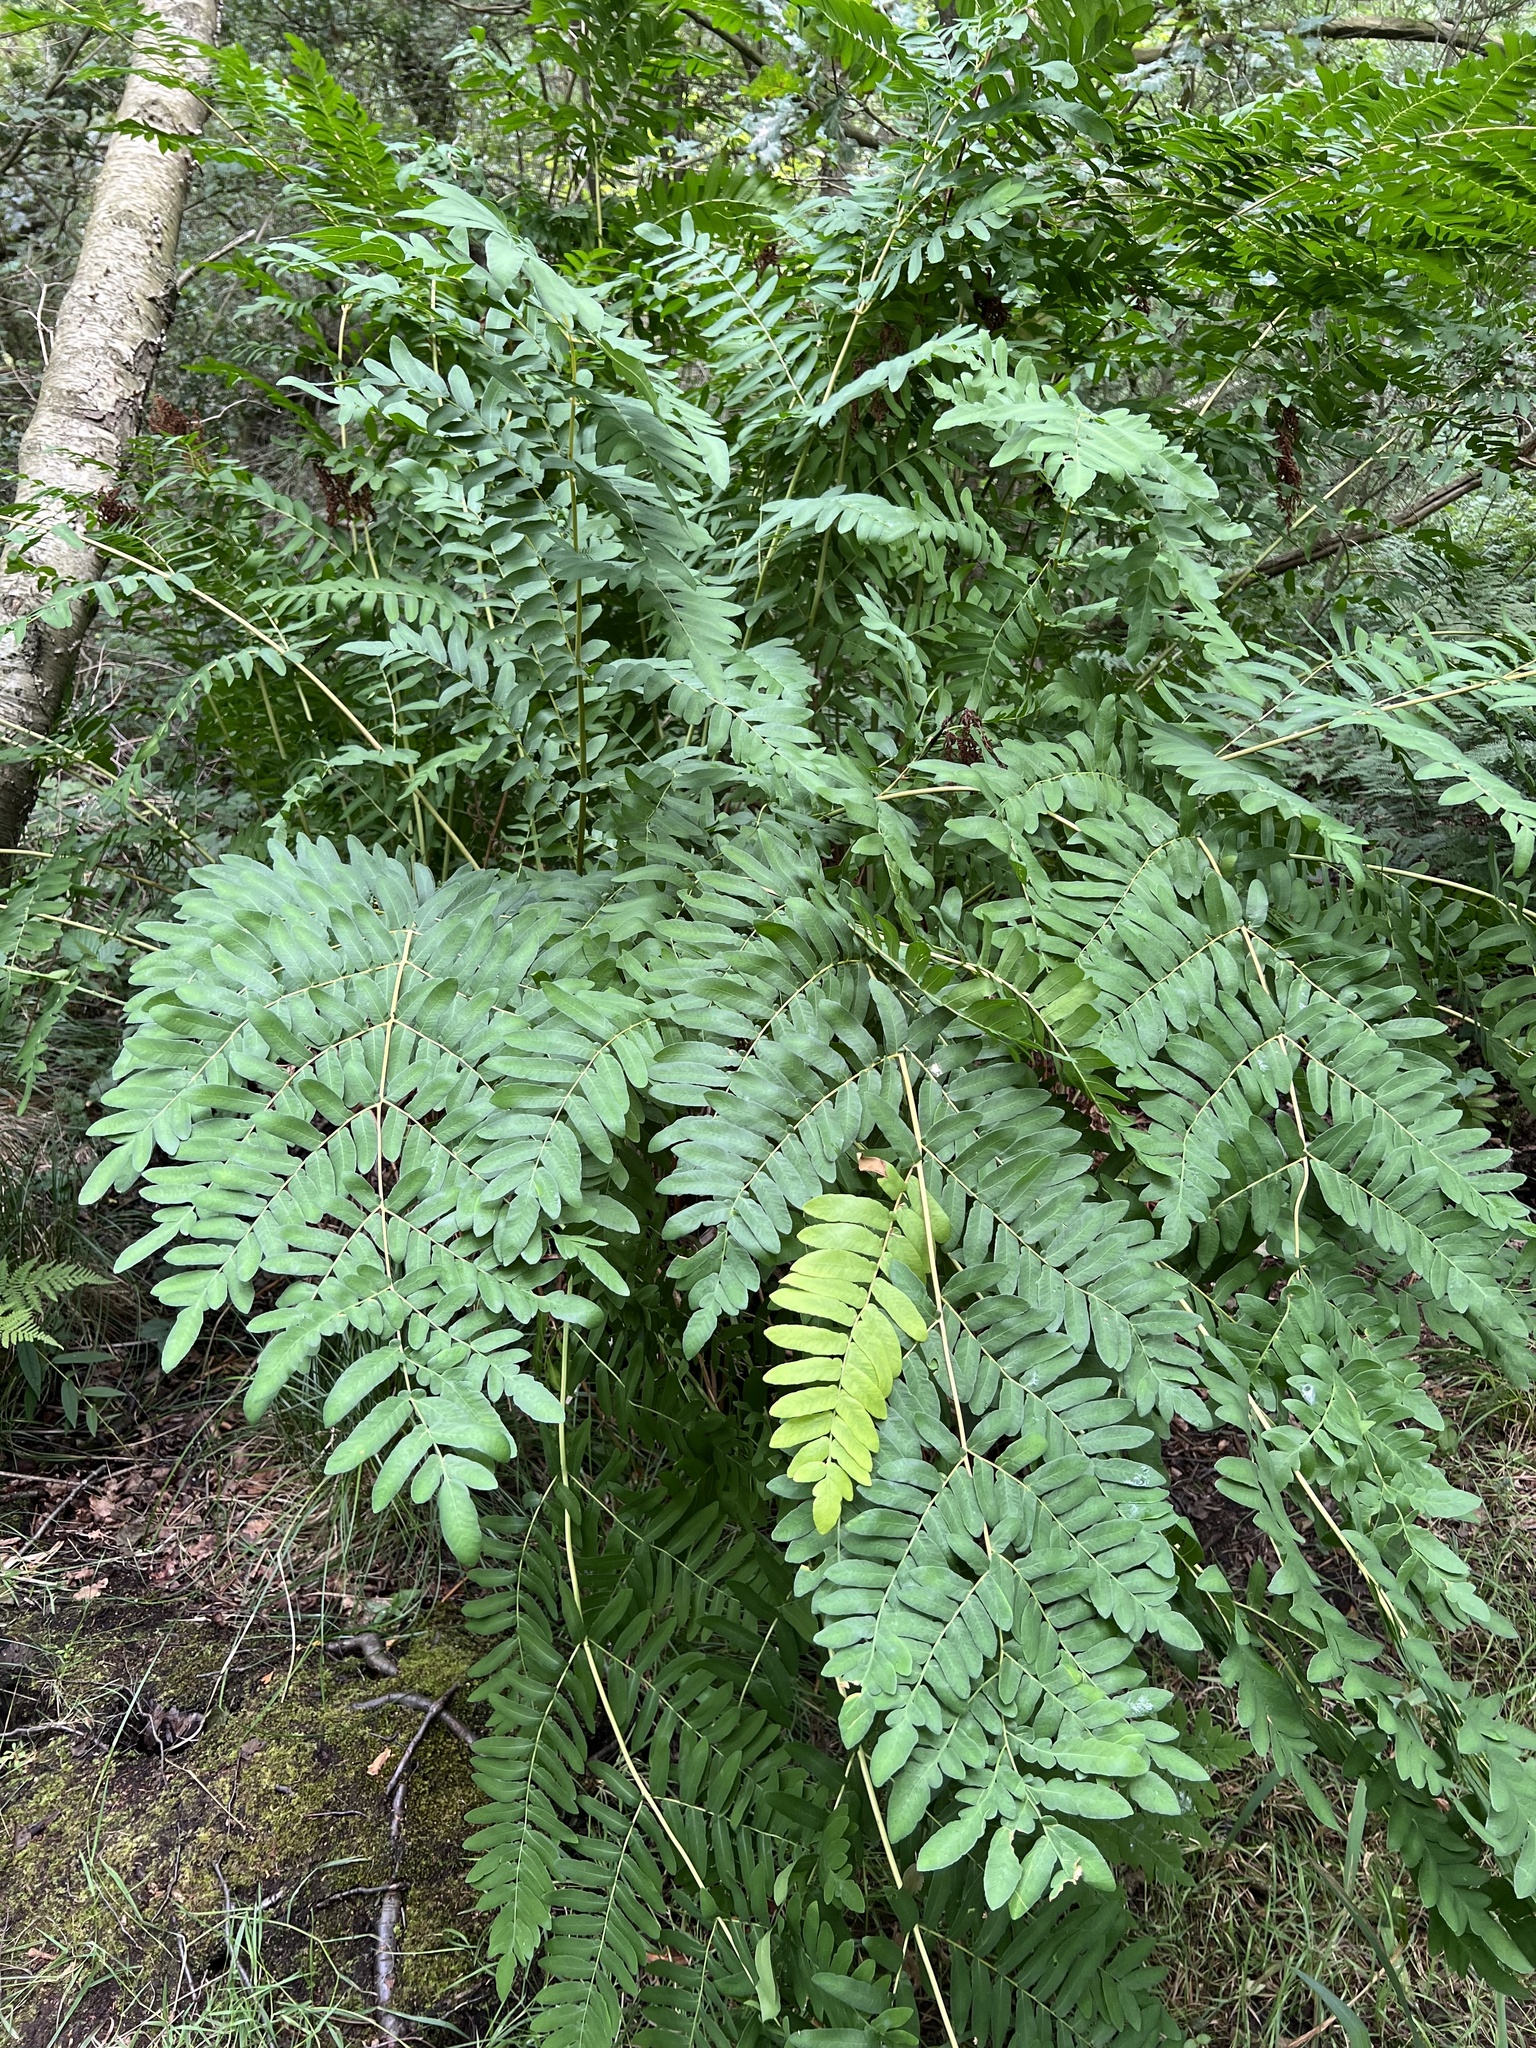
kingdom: Plantae
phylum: Tracheophyta
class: Polypodiopsida
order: Osmundales
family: Osmundaceae
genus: Osmunda
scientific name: Osmunda regalis
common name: Royal fern
